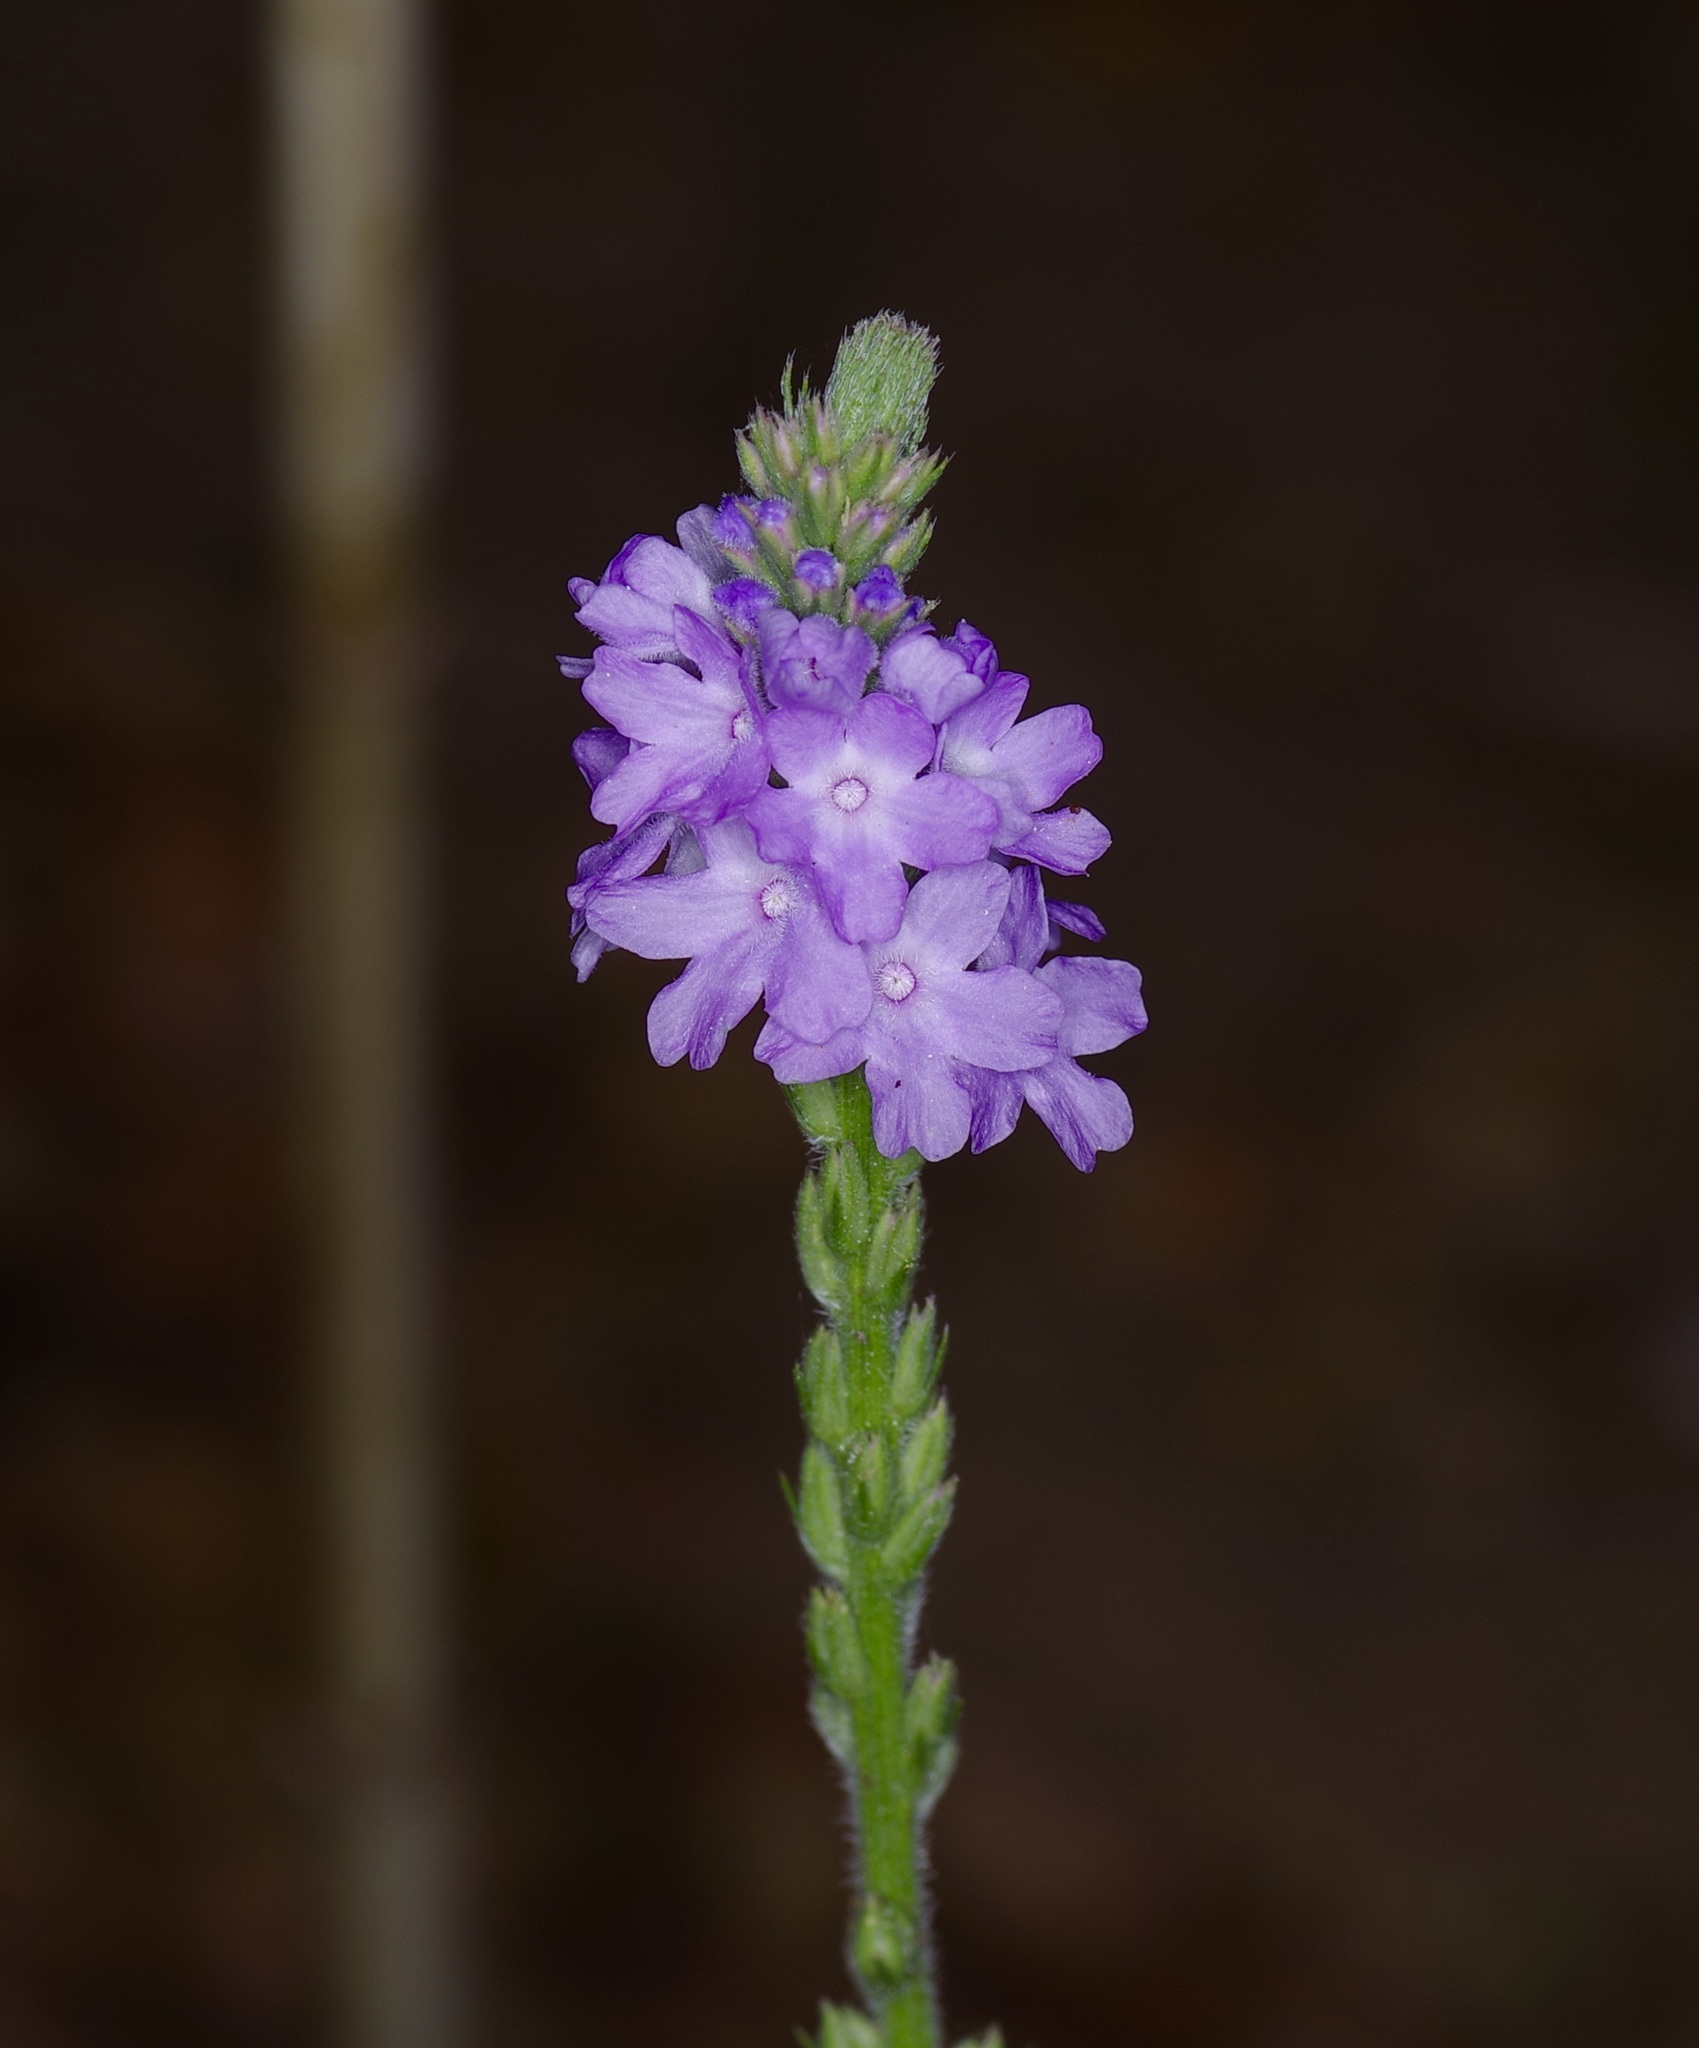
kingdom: Plantae
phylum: Tracheophyta
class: Magnoliopsida
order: Lamiales
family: Verbenaceae
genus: Verbena
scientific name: Verbena xutha
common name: Gulf vervain
